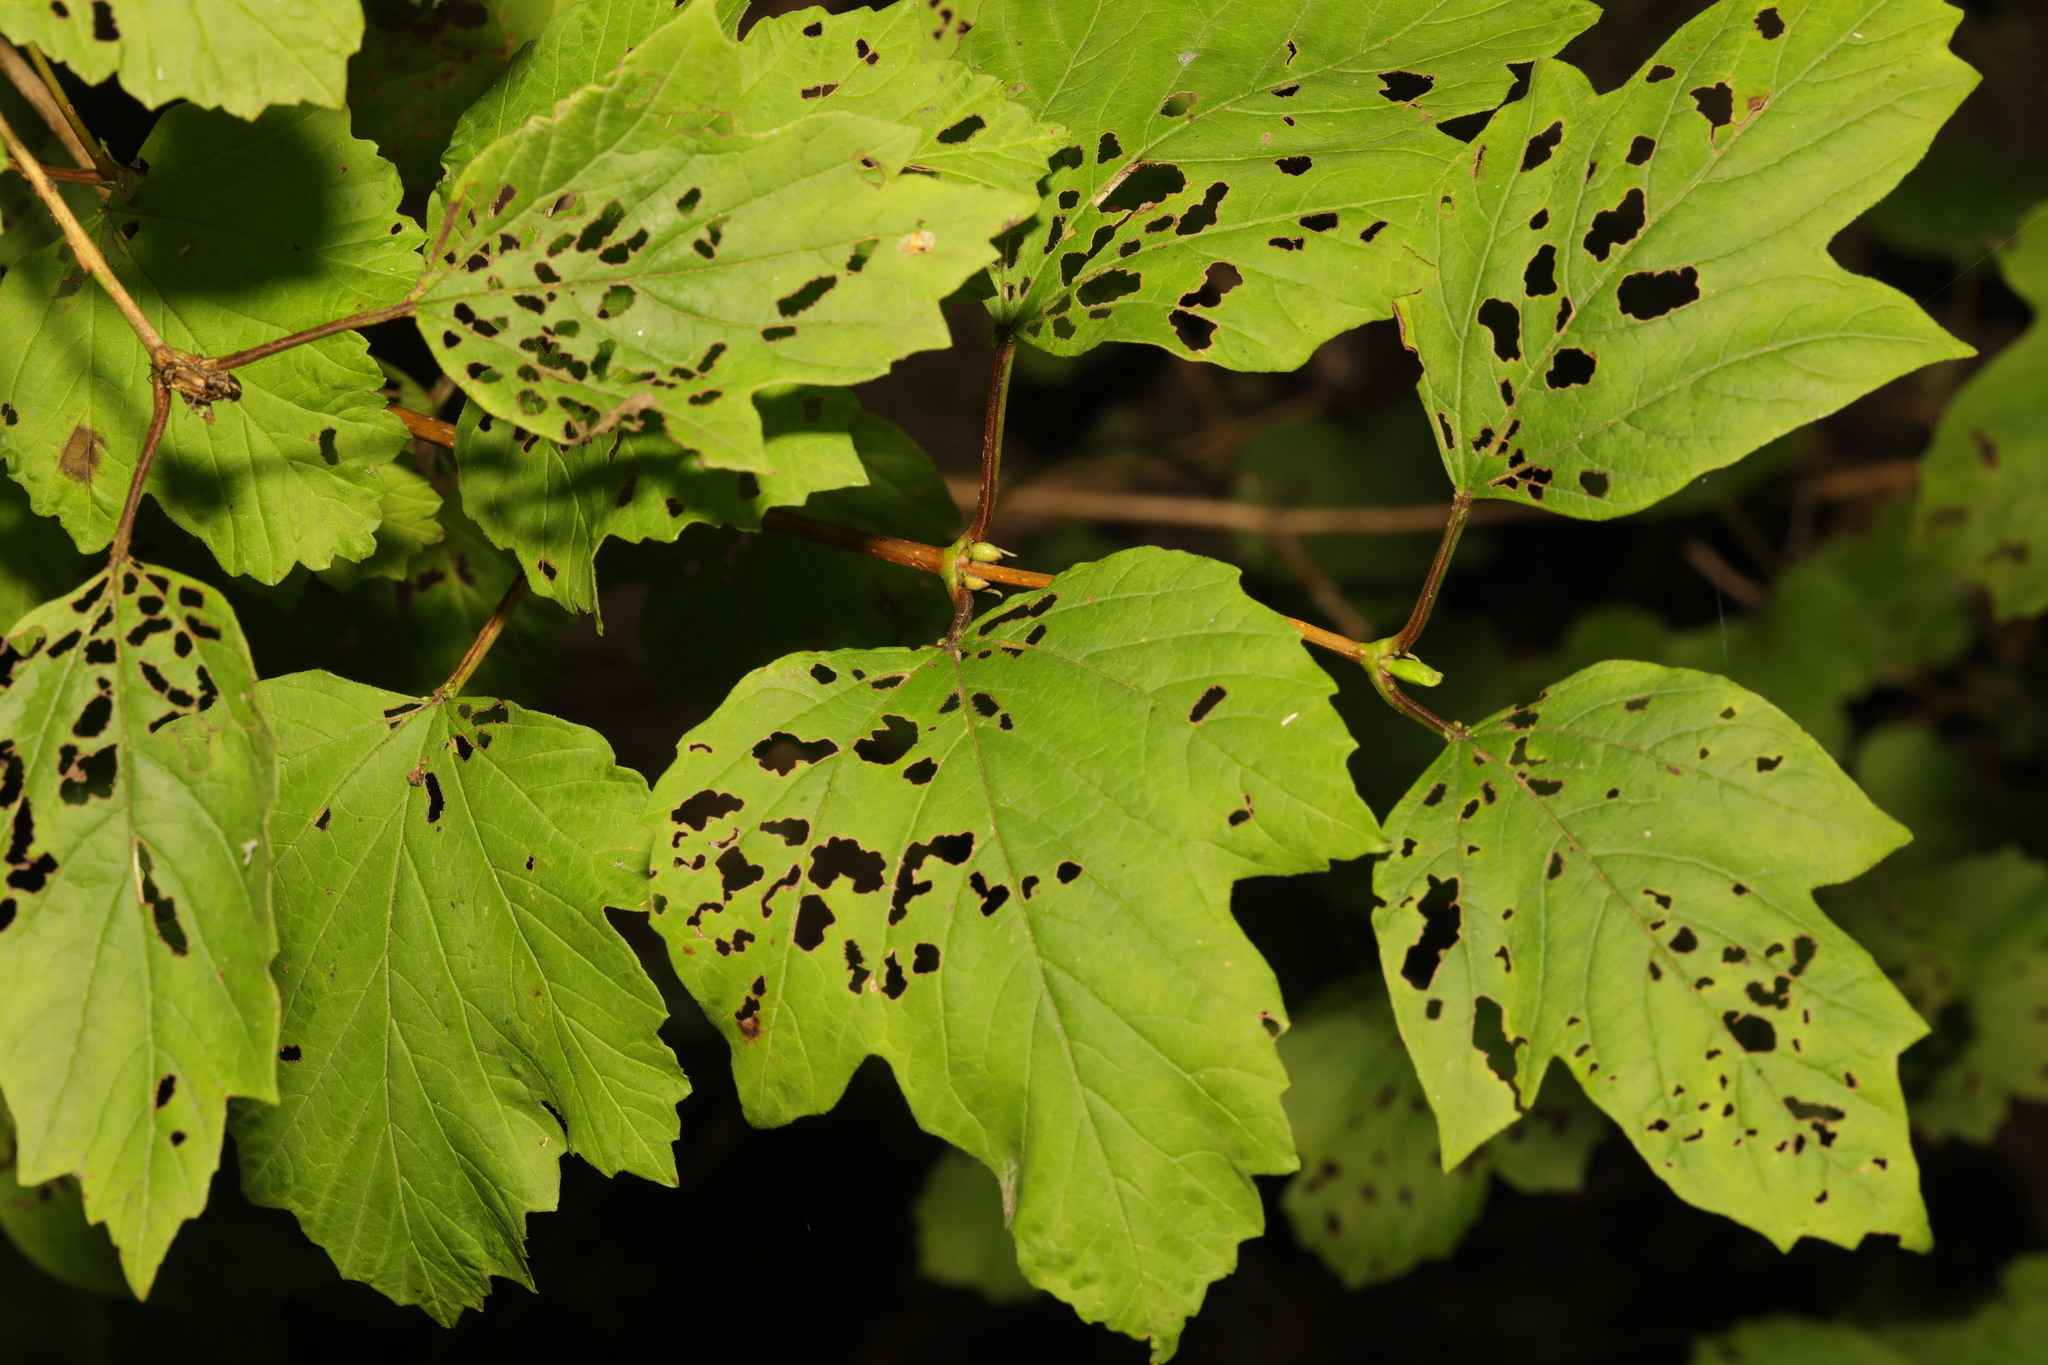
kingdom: Plantae
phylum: Tracheophyta
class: Magnoliopsida
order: Dipsacales
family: Viburnaceae
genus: Viburnum
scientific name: Viburnum opulus
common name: Guelder-rose
